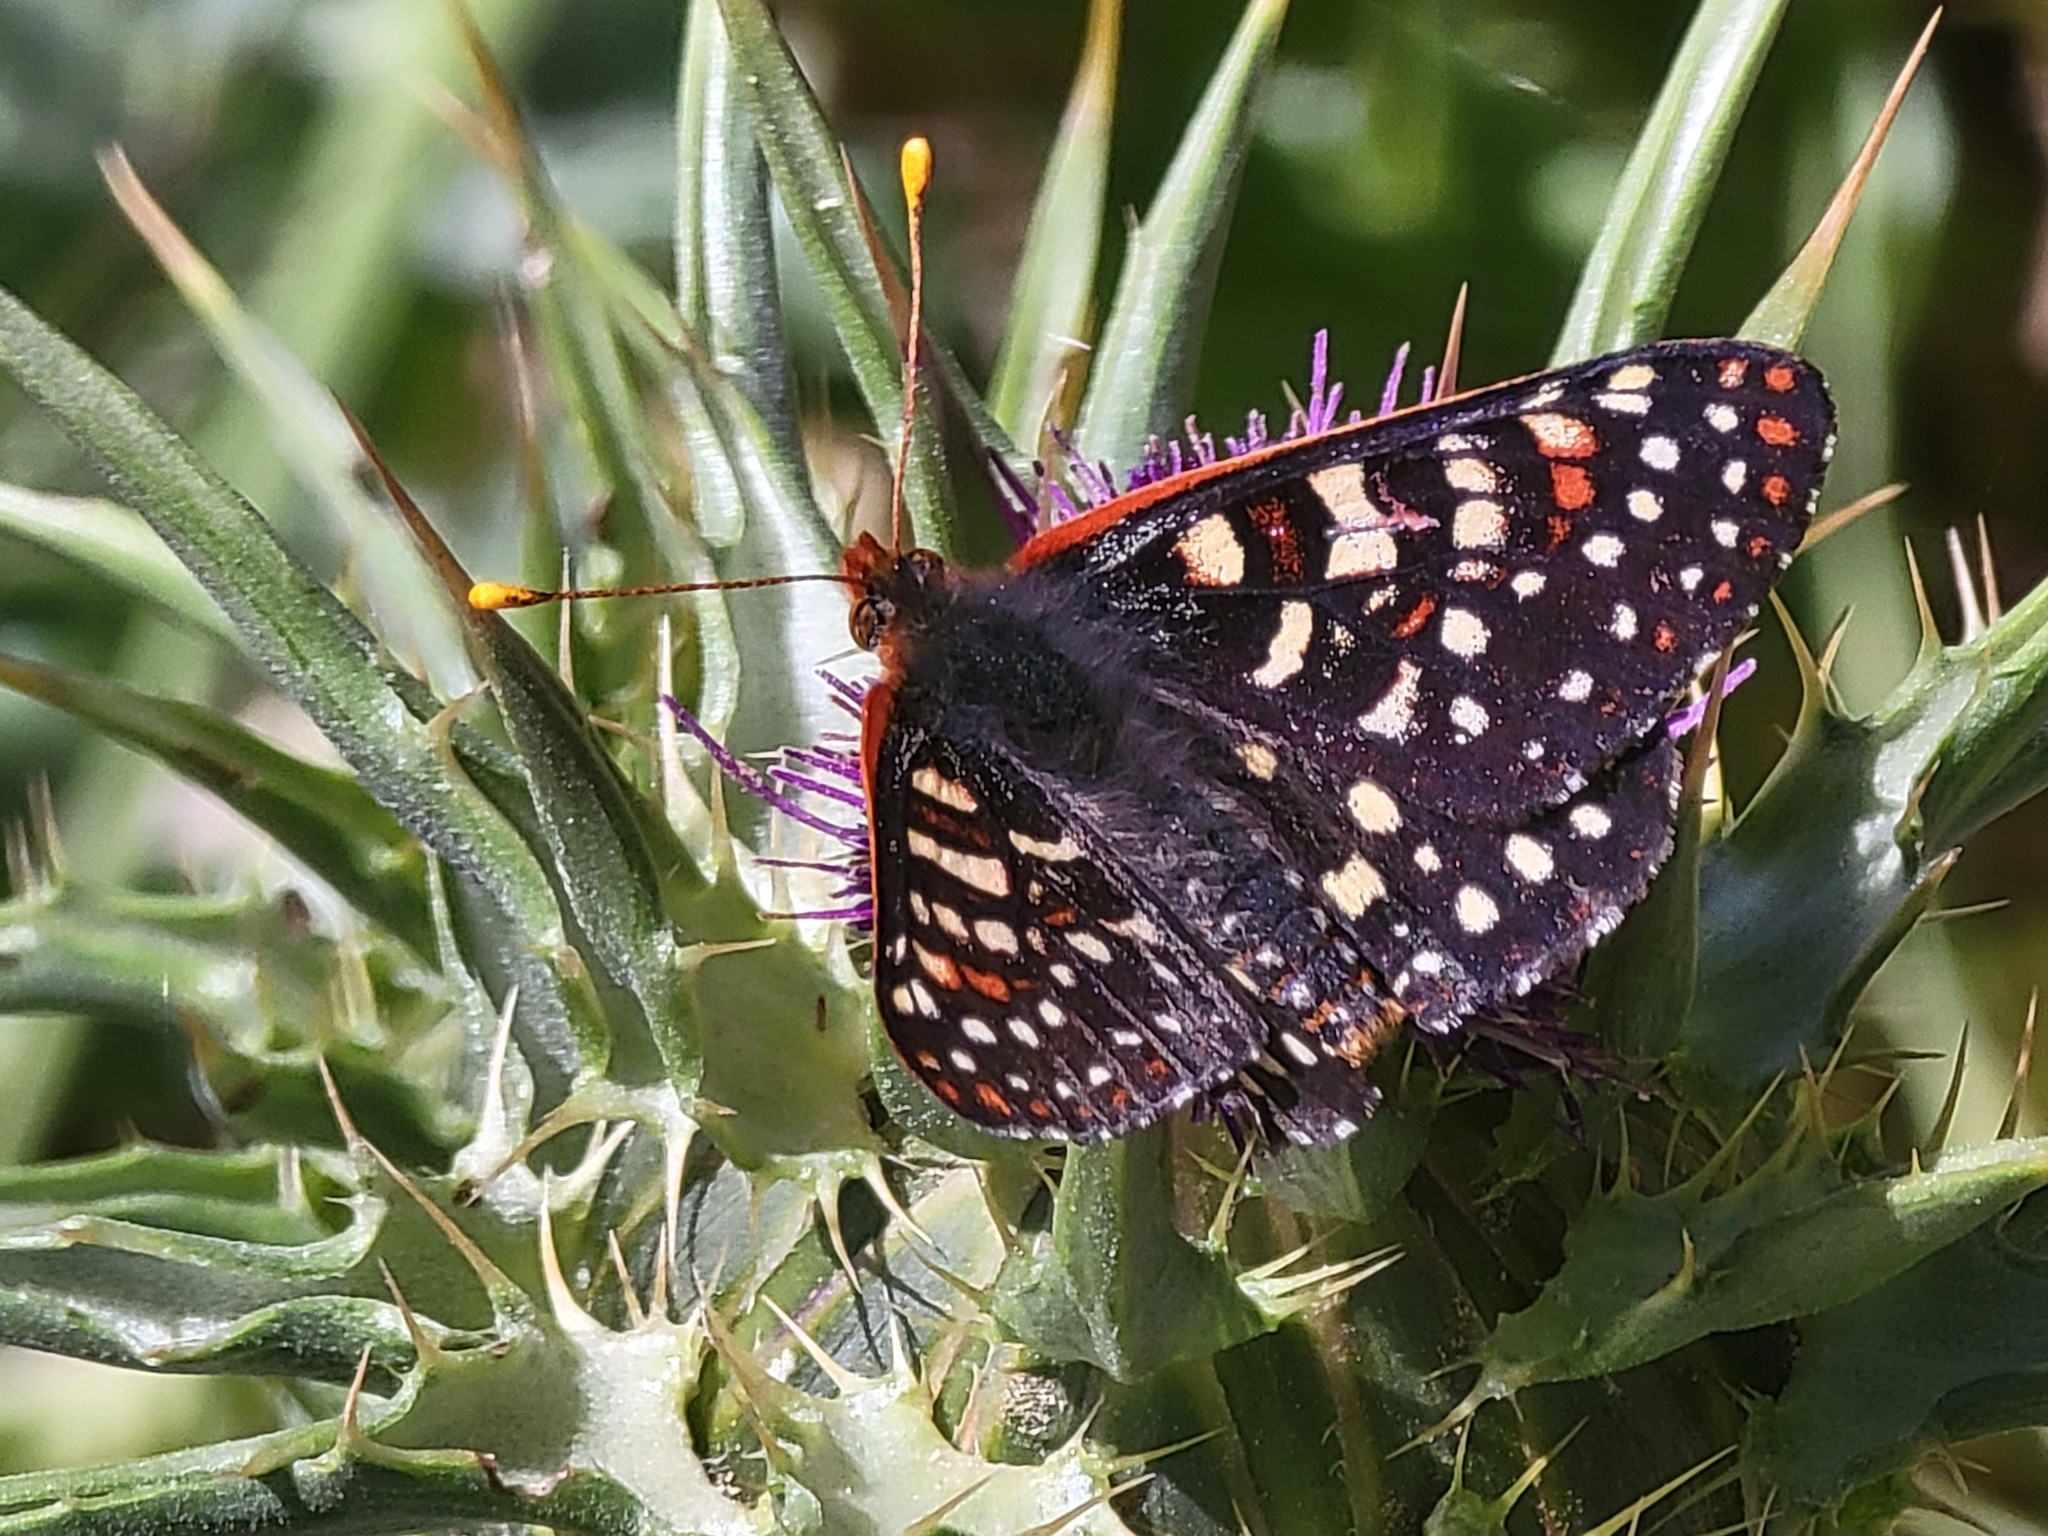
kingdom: Animalia
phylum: Arthropoda
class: Insecta
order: Lepidoptera
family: Nymphalidae
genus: Occidryas
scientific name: Occidryas chalcedona
